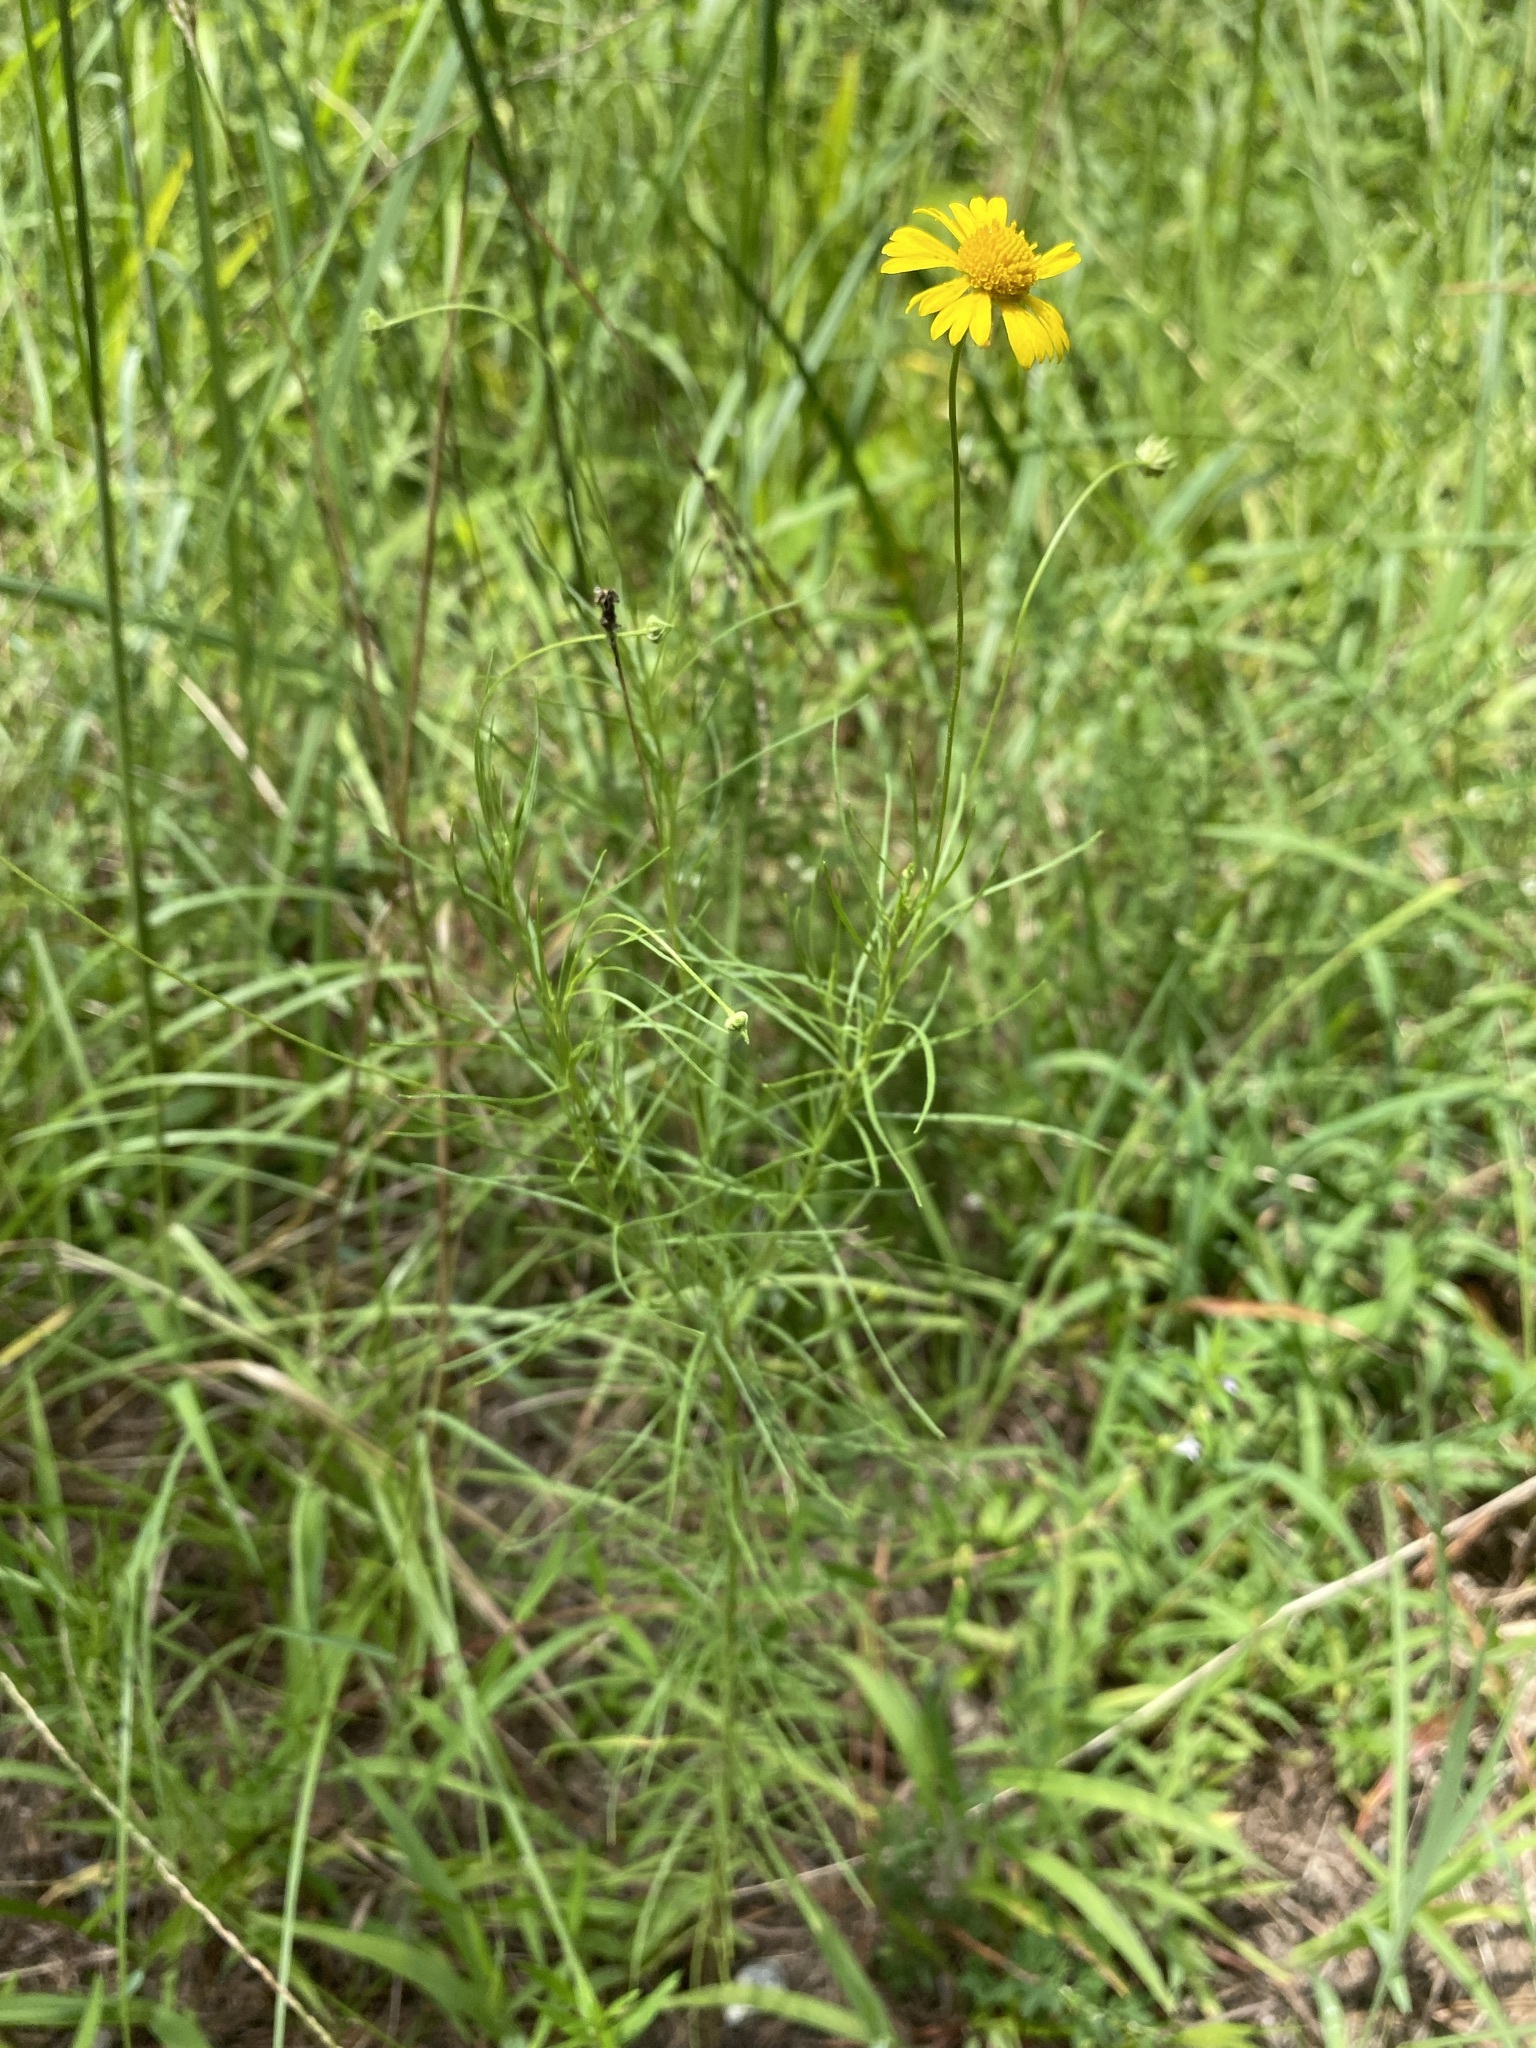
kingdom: Plantae
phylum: Tracheophyta
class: Magnoliopsida
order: Asterales
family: Asteraceae
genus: Helenium
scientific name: Helenium amarum
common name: Bitter sneezeweed
